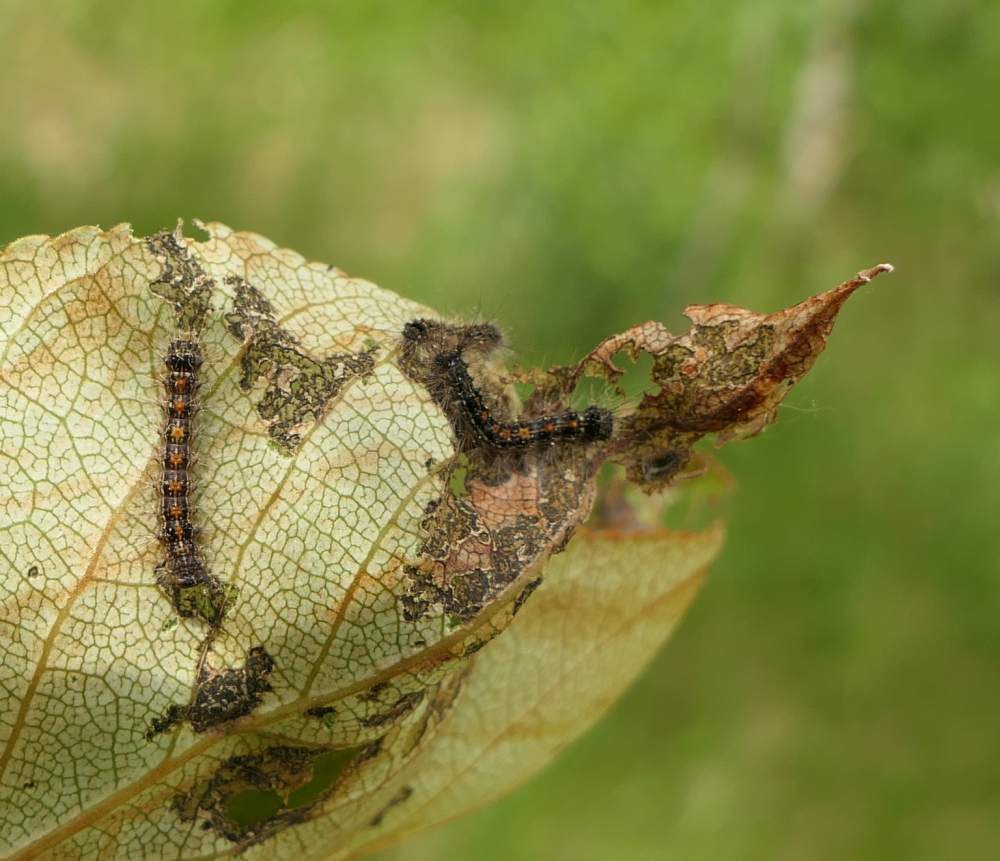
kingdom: Animalia
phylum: Arthropoda
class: Insecta
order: Lepidoptera
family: Erebidae
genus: Lymantria
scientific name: Lymantria dispar
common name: Gypsy moth
